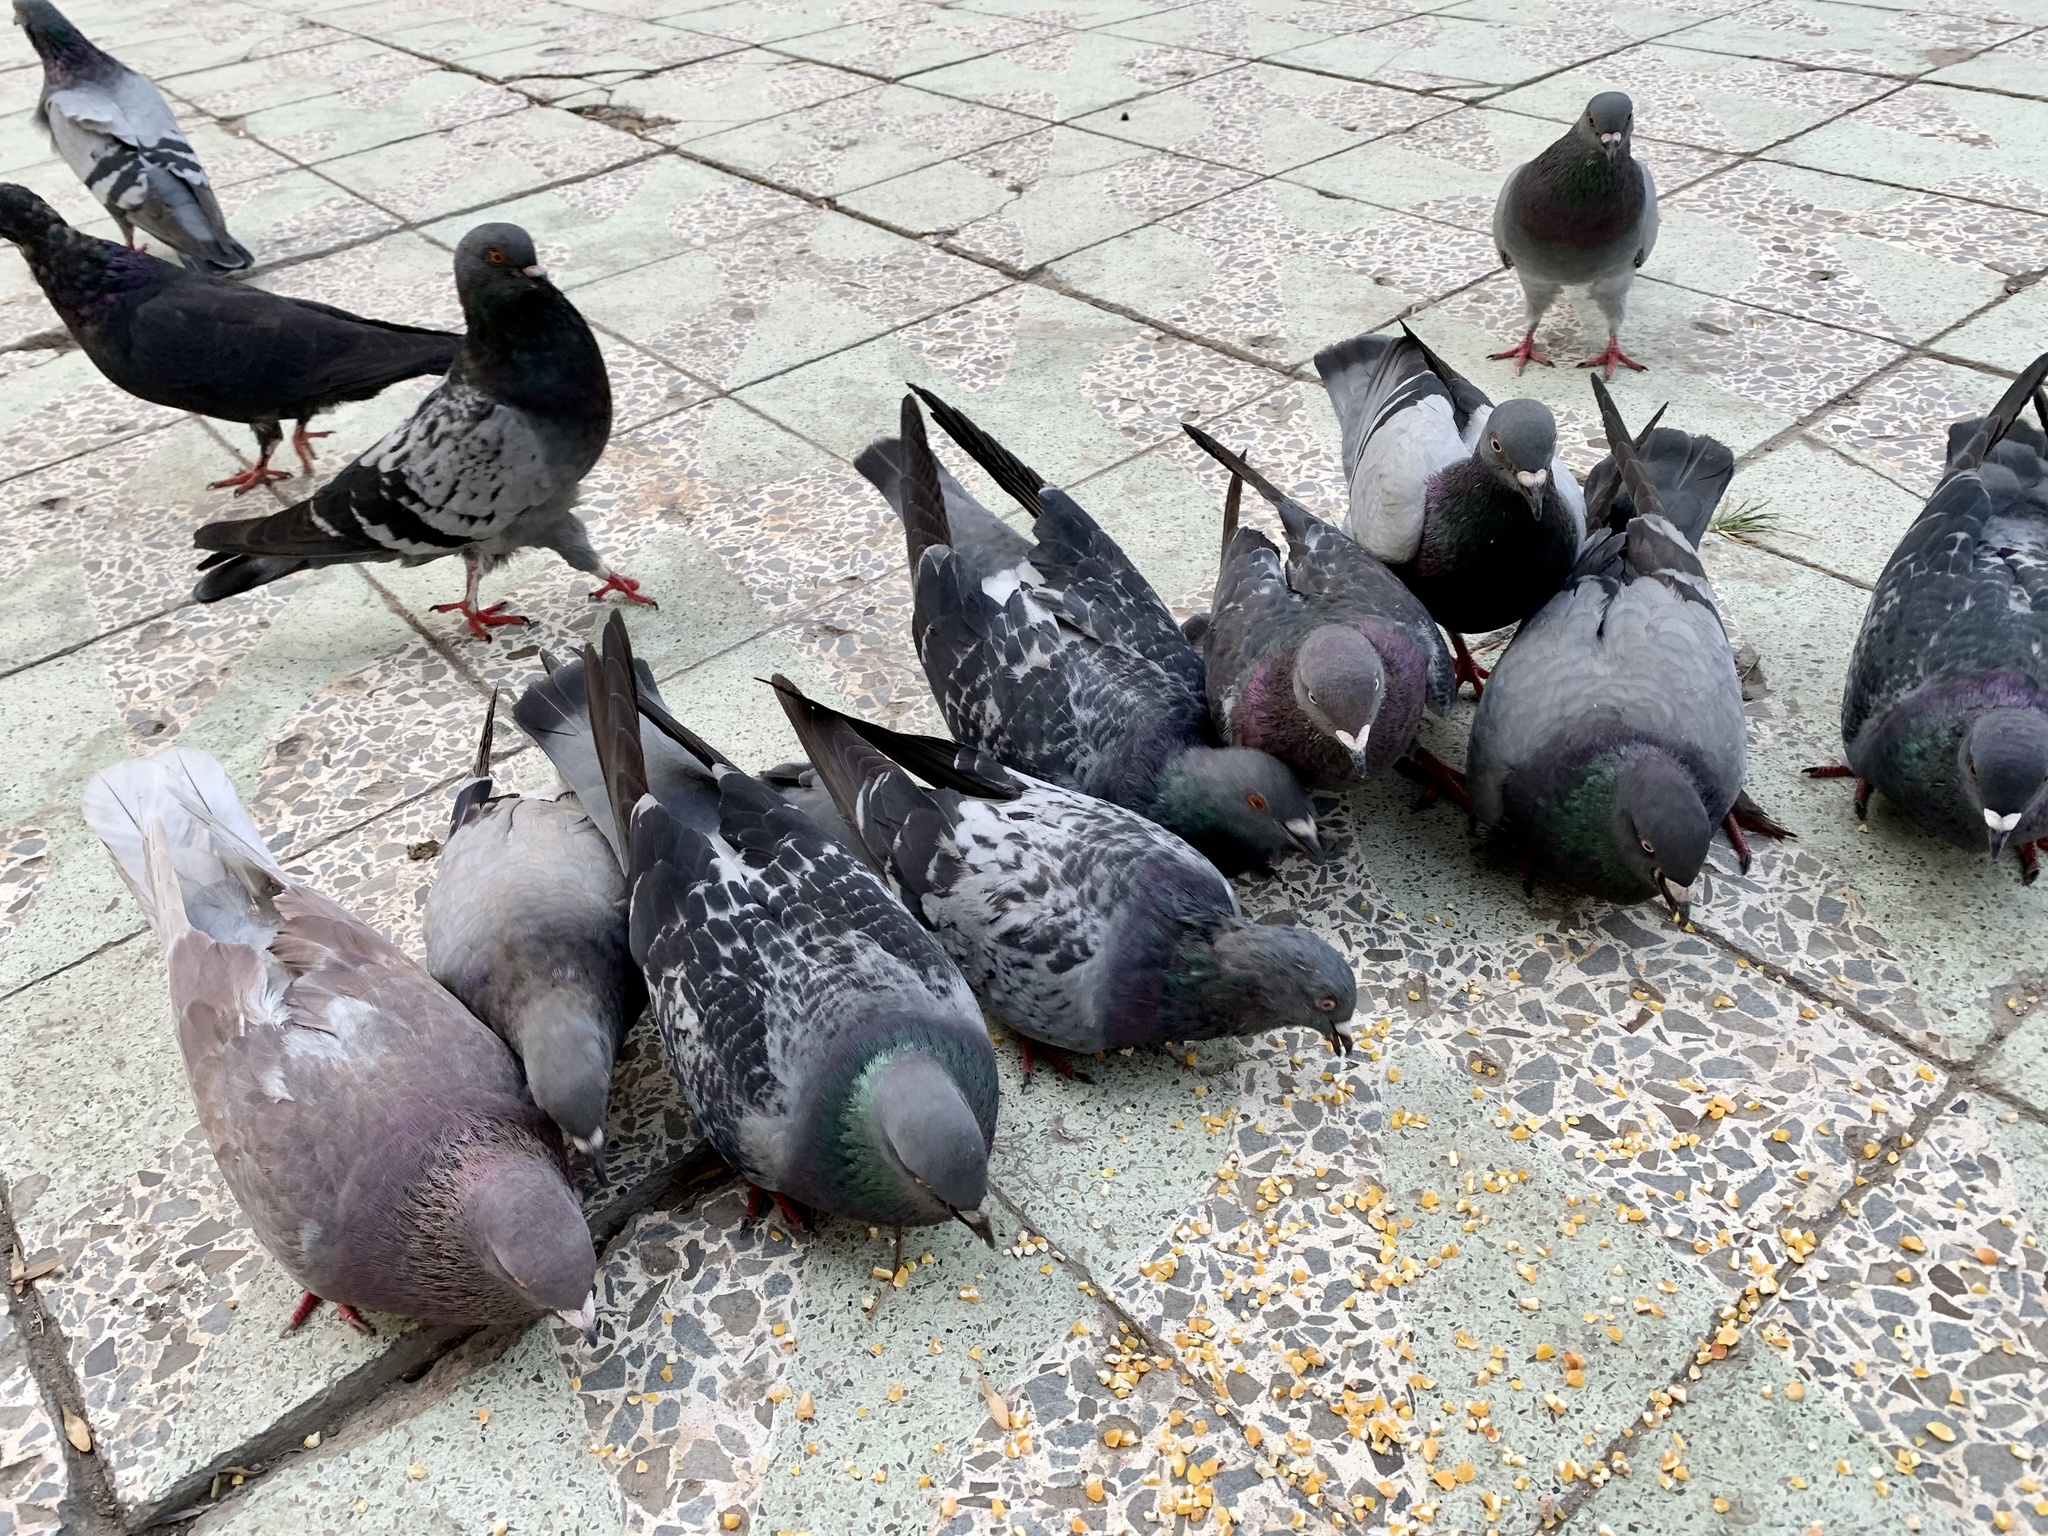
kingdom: Animalia
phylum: Chordata
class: Aves
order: Columbiformes
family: Columbidae
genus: Columba
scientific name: Columba livia
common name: Rock pigeon
